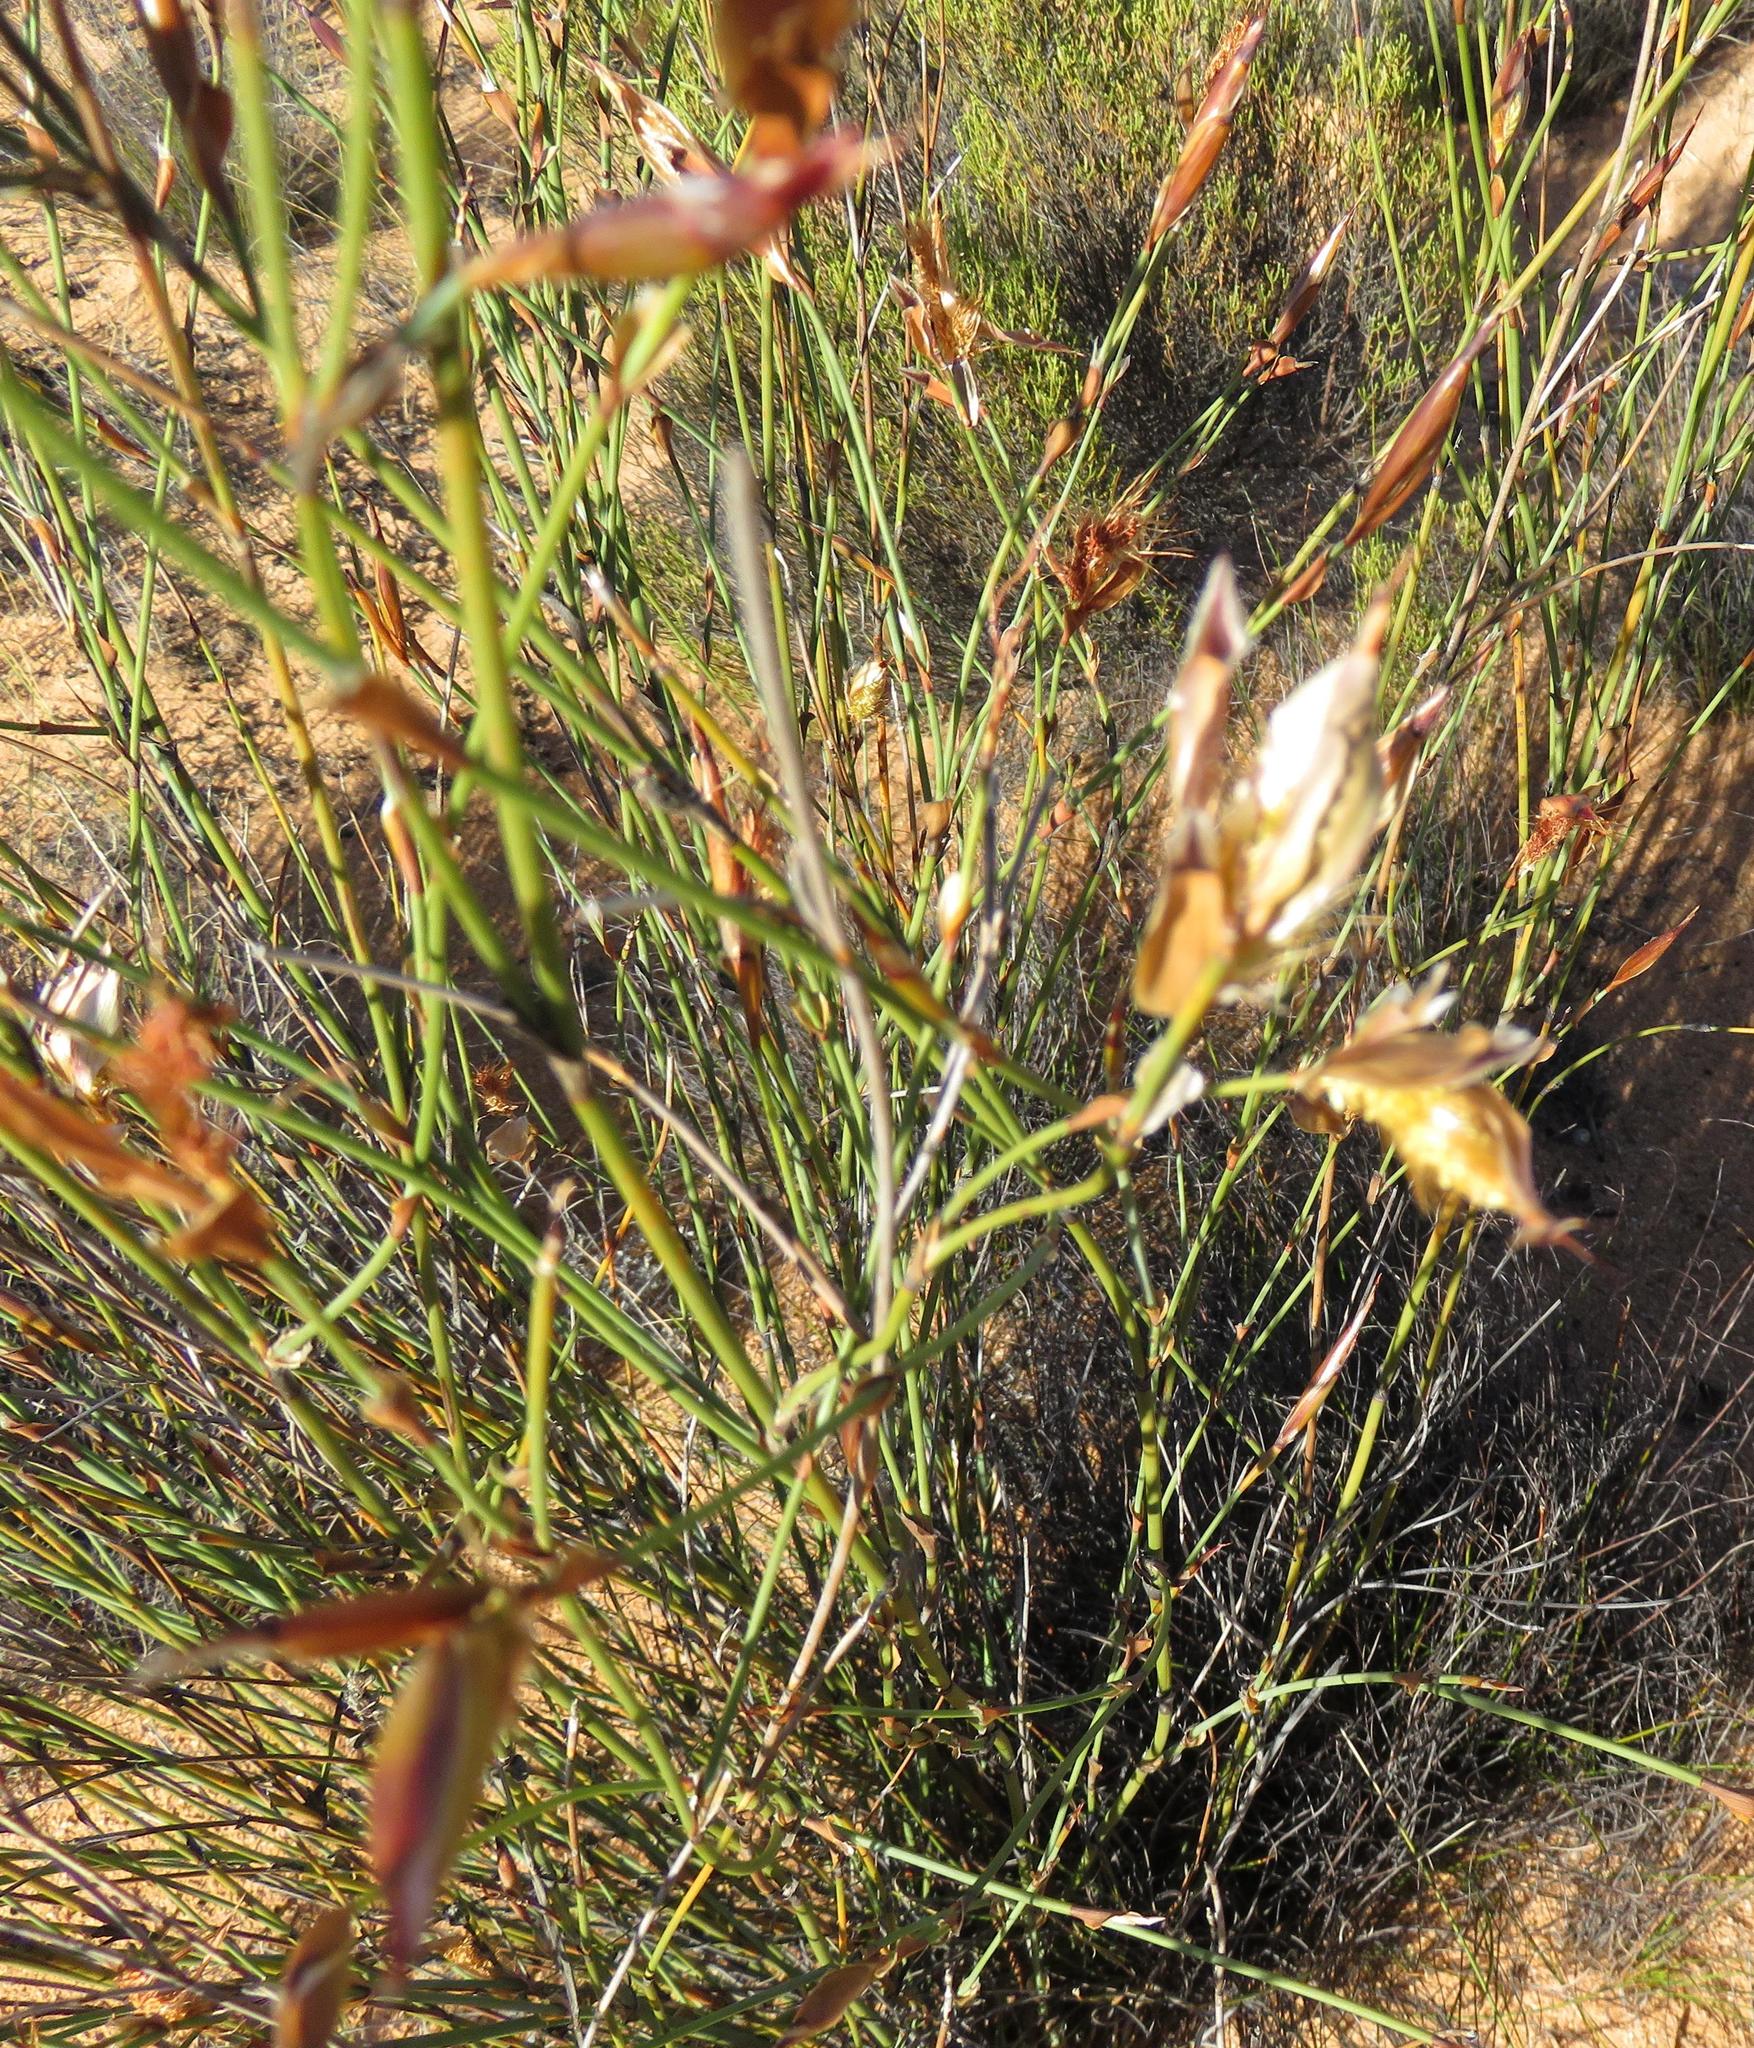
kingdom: Plantae
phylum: Tracheophyta
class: Liliopsida
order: Poales
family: Restionaceae
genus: Willdenowia
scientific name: Willdenowia incurvata
